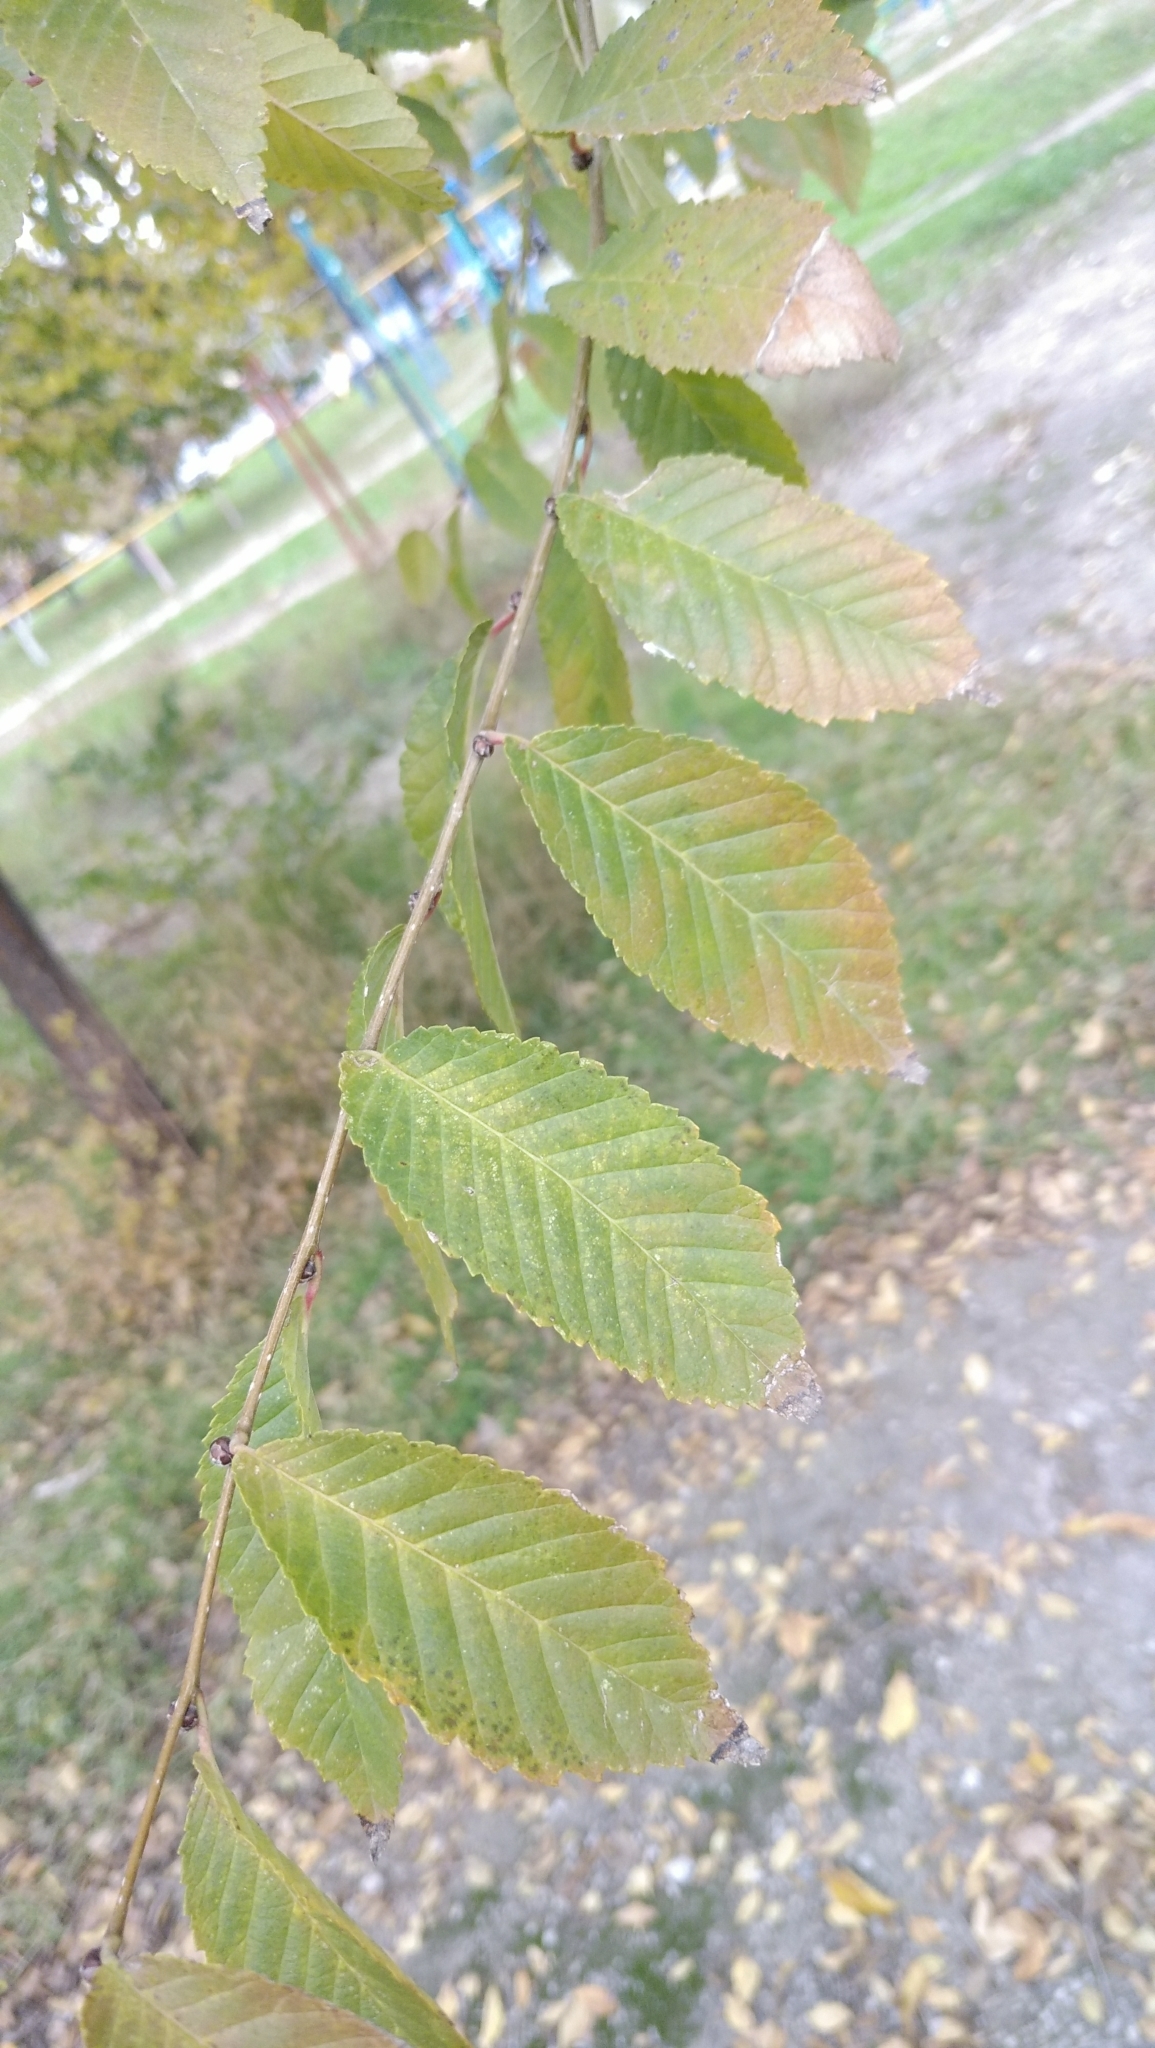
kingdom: Plantae
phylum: Tracheophyta
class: Magnoliopsida
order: Rosales
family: Ulmaceae
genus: Ulmus
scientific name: Ulmus pumila
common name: Siberian elm
